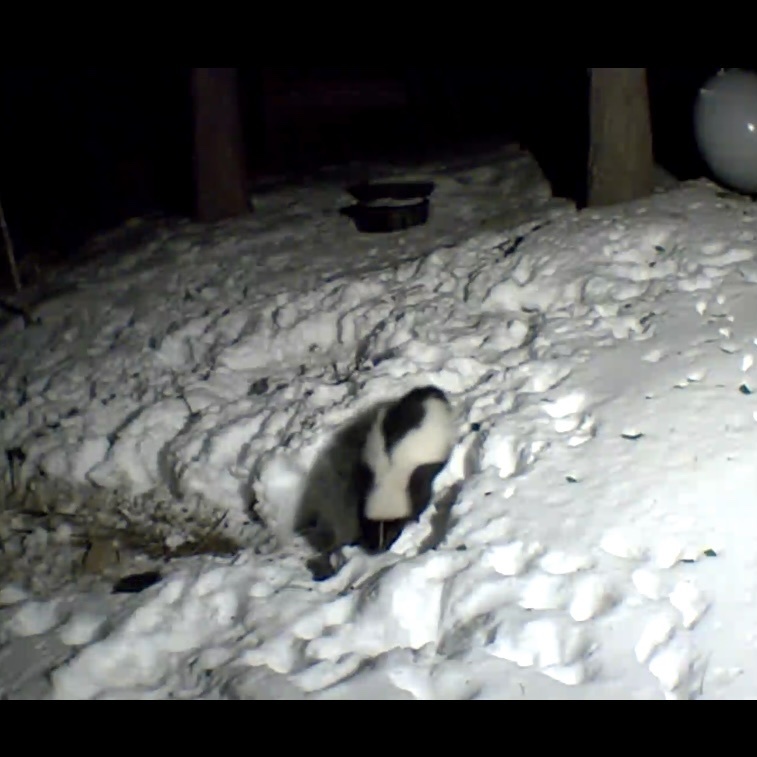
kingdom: Animalia
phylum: Chordata
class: Mammalia
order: Carnivora
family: Mephitidae
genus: Mephitis
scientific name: Mephitis mephitis
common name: Striped skunk
